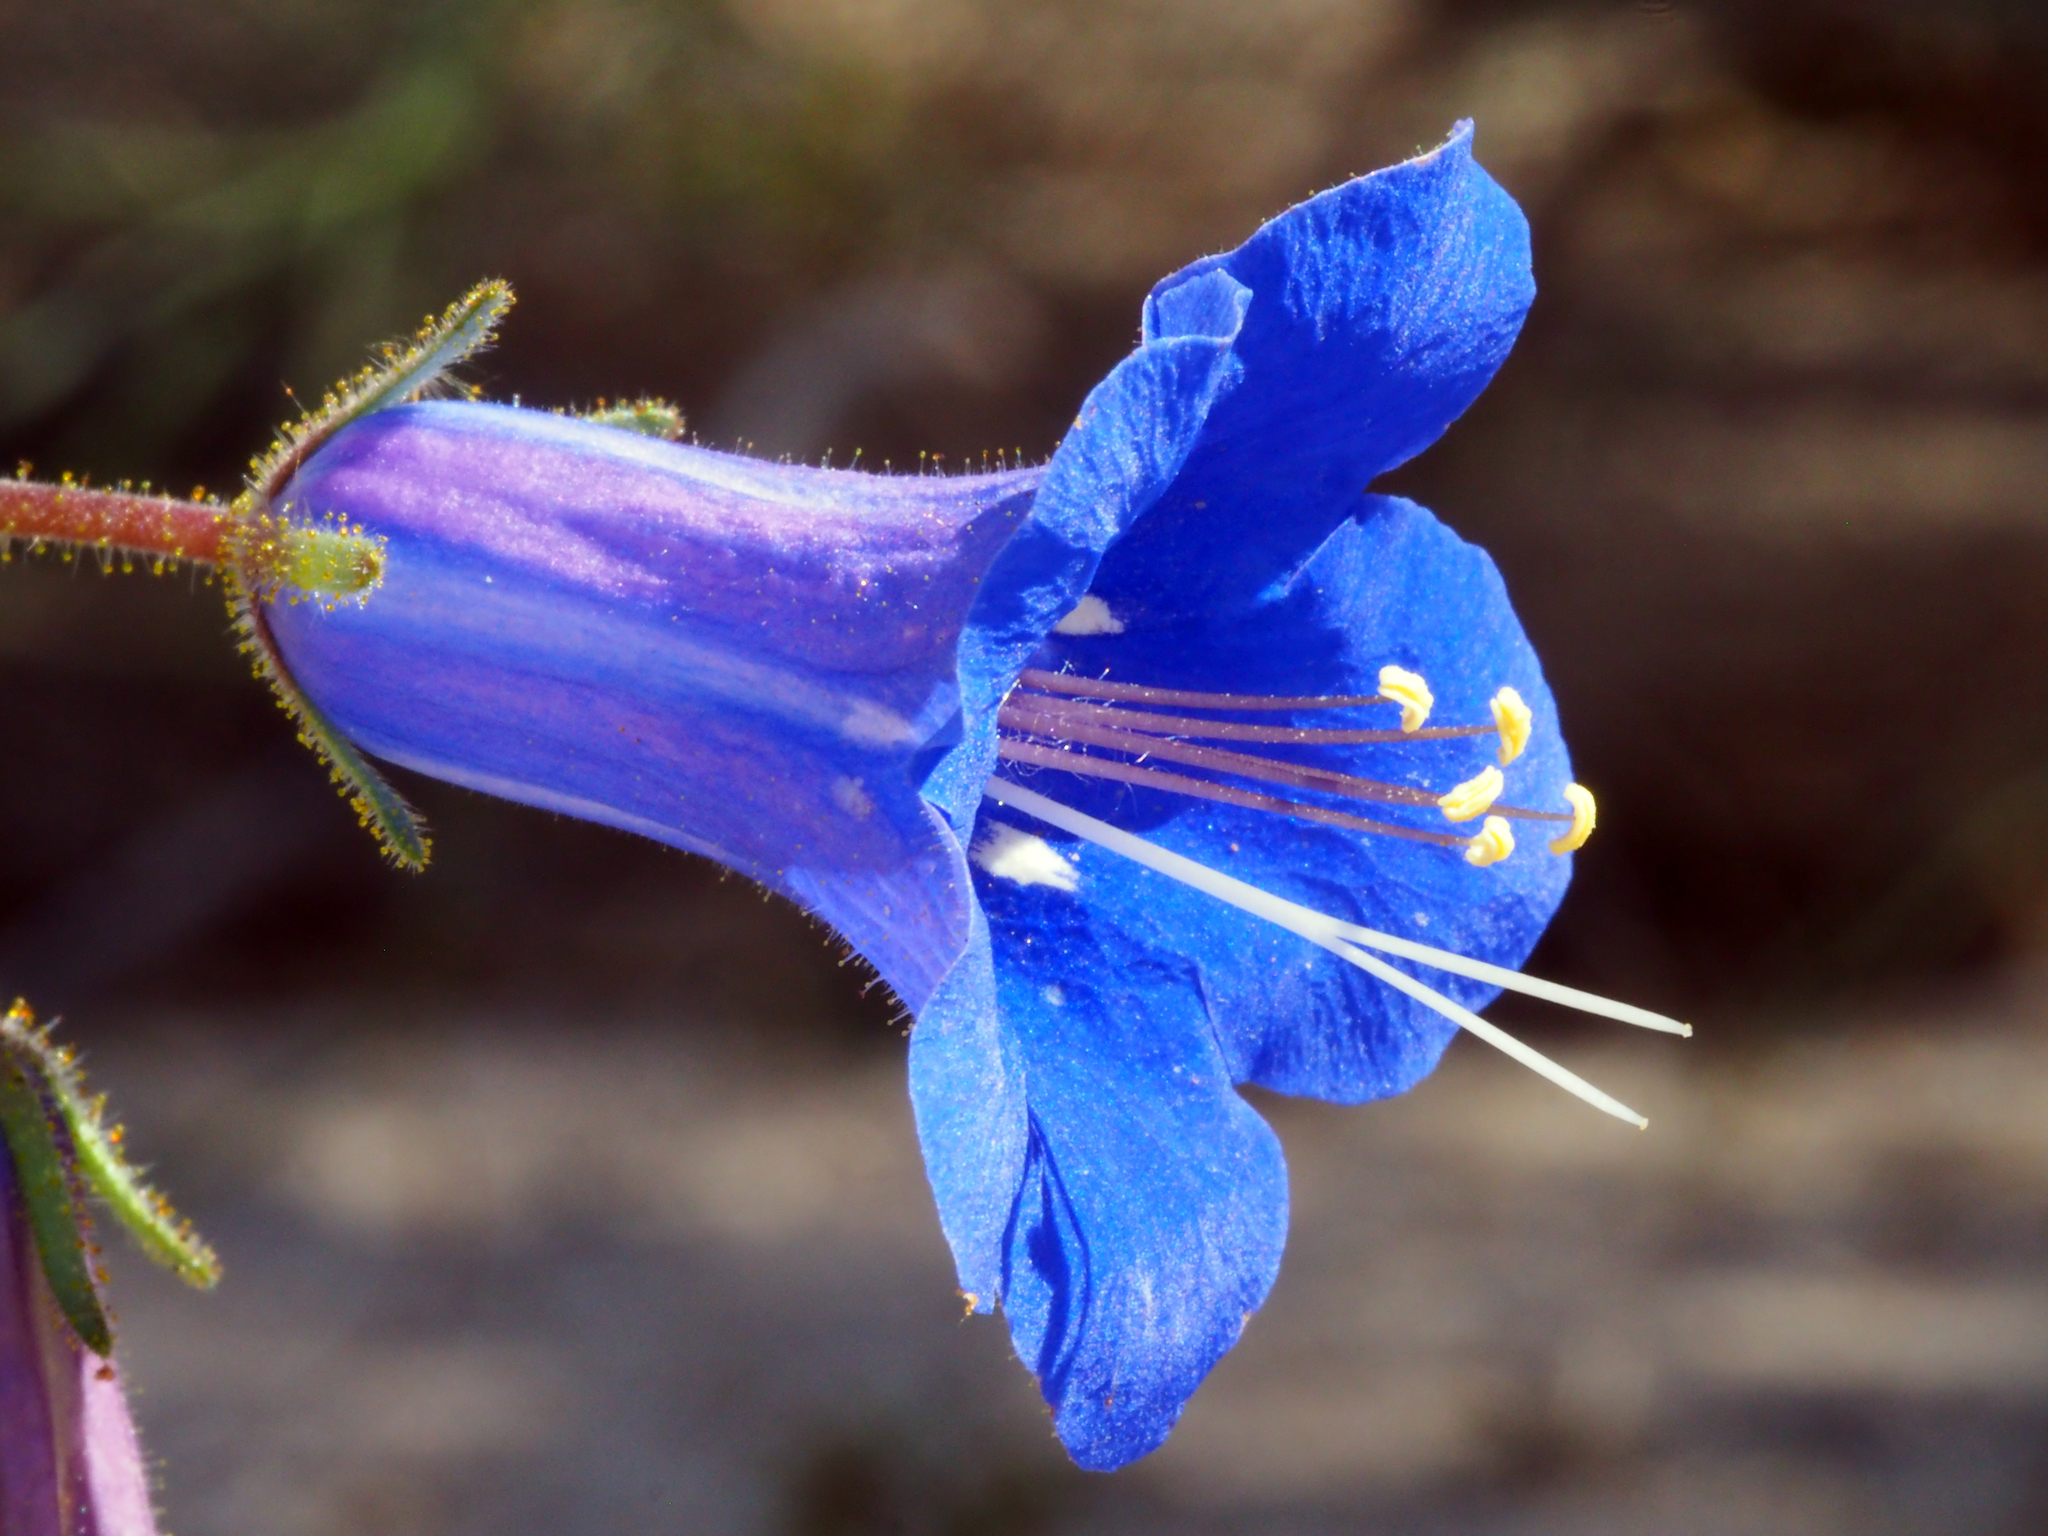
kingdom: Plantae
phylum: Tracheophyta
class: Magnoliopsida
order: Boraginales
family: Hydrophyllaceae
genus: Phacelia
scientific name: Phacelia campanularia
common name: California bluebell
